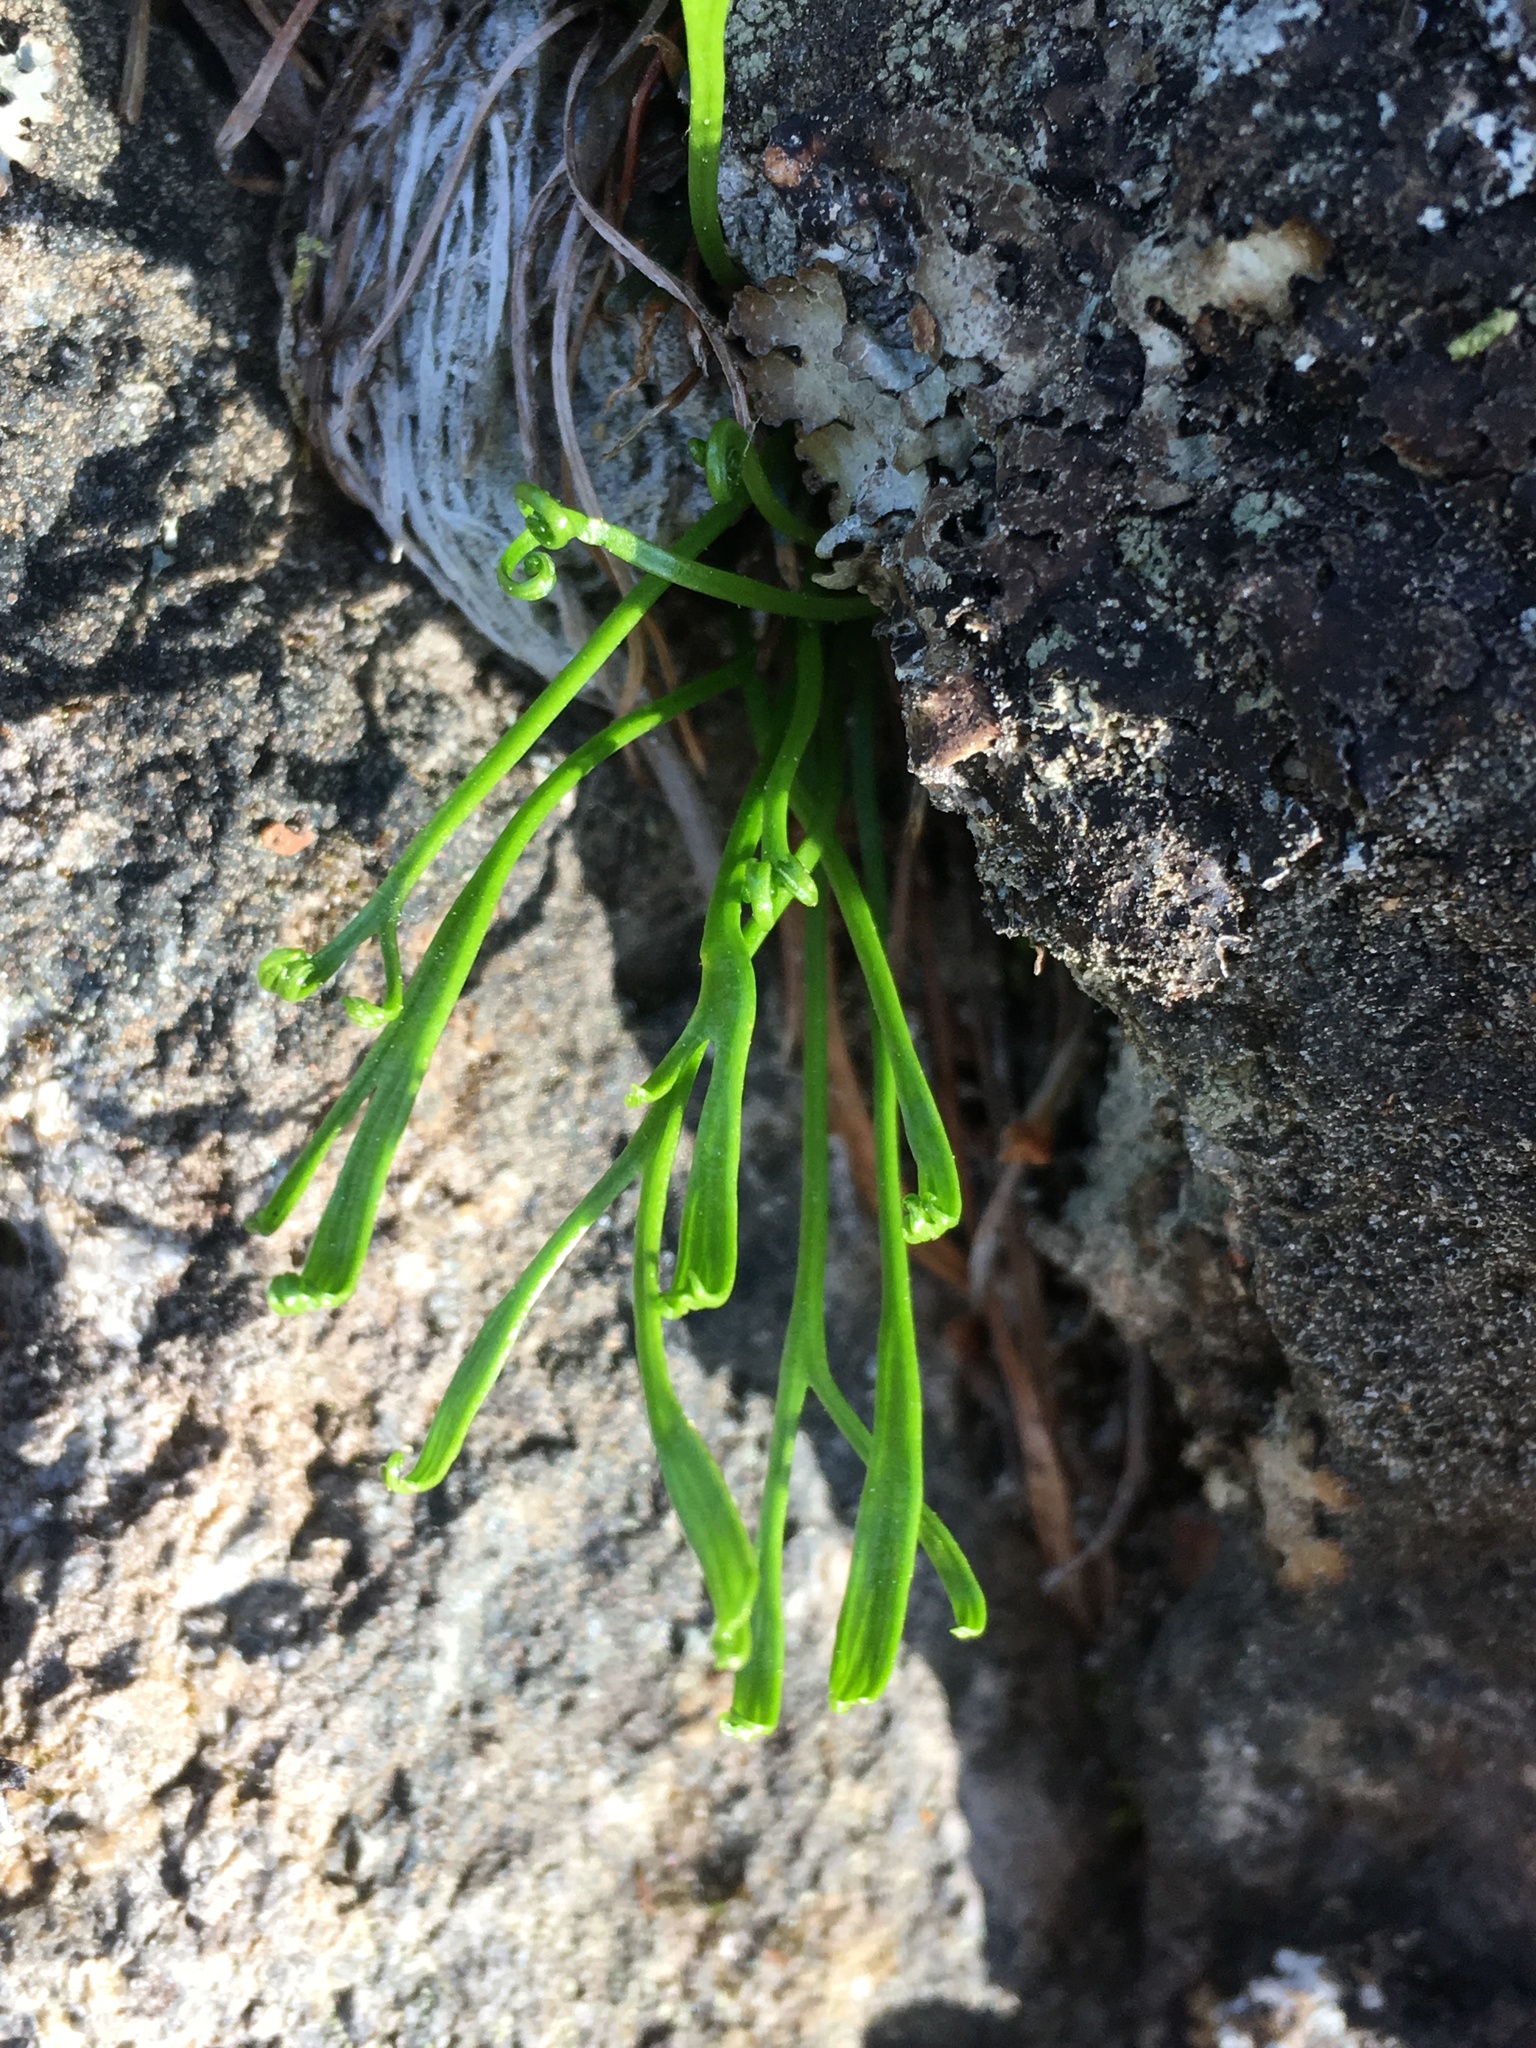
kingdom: Plantae
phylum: Tracheophyta
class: Polypodiopsida
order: Polypodiales
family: Aspleniaceae
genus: Asplenium
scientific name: Asplenium septentrionale
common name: Forked spleenwort
